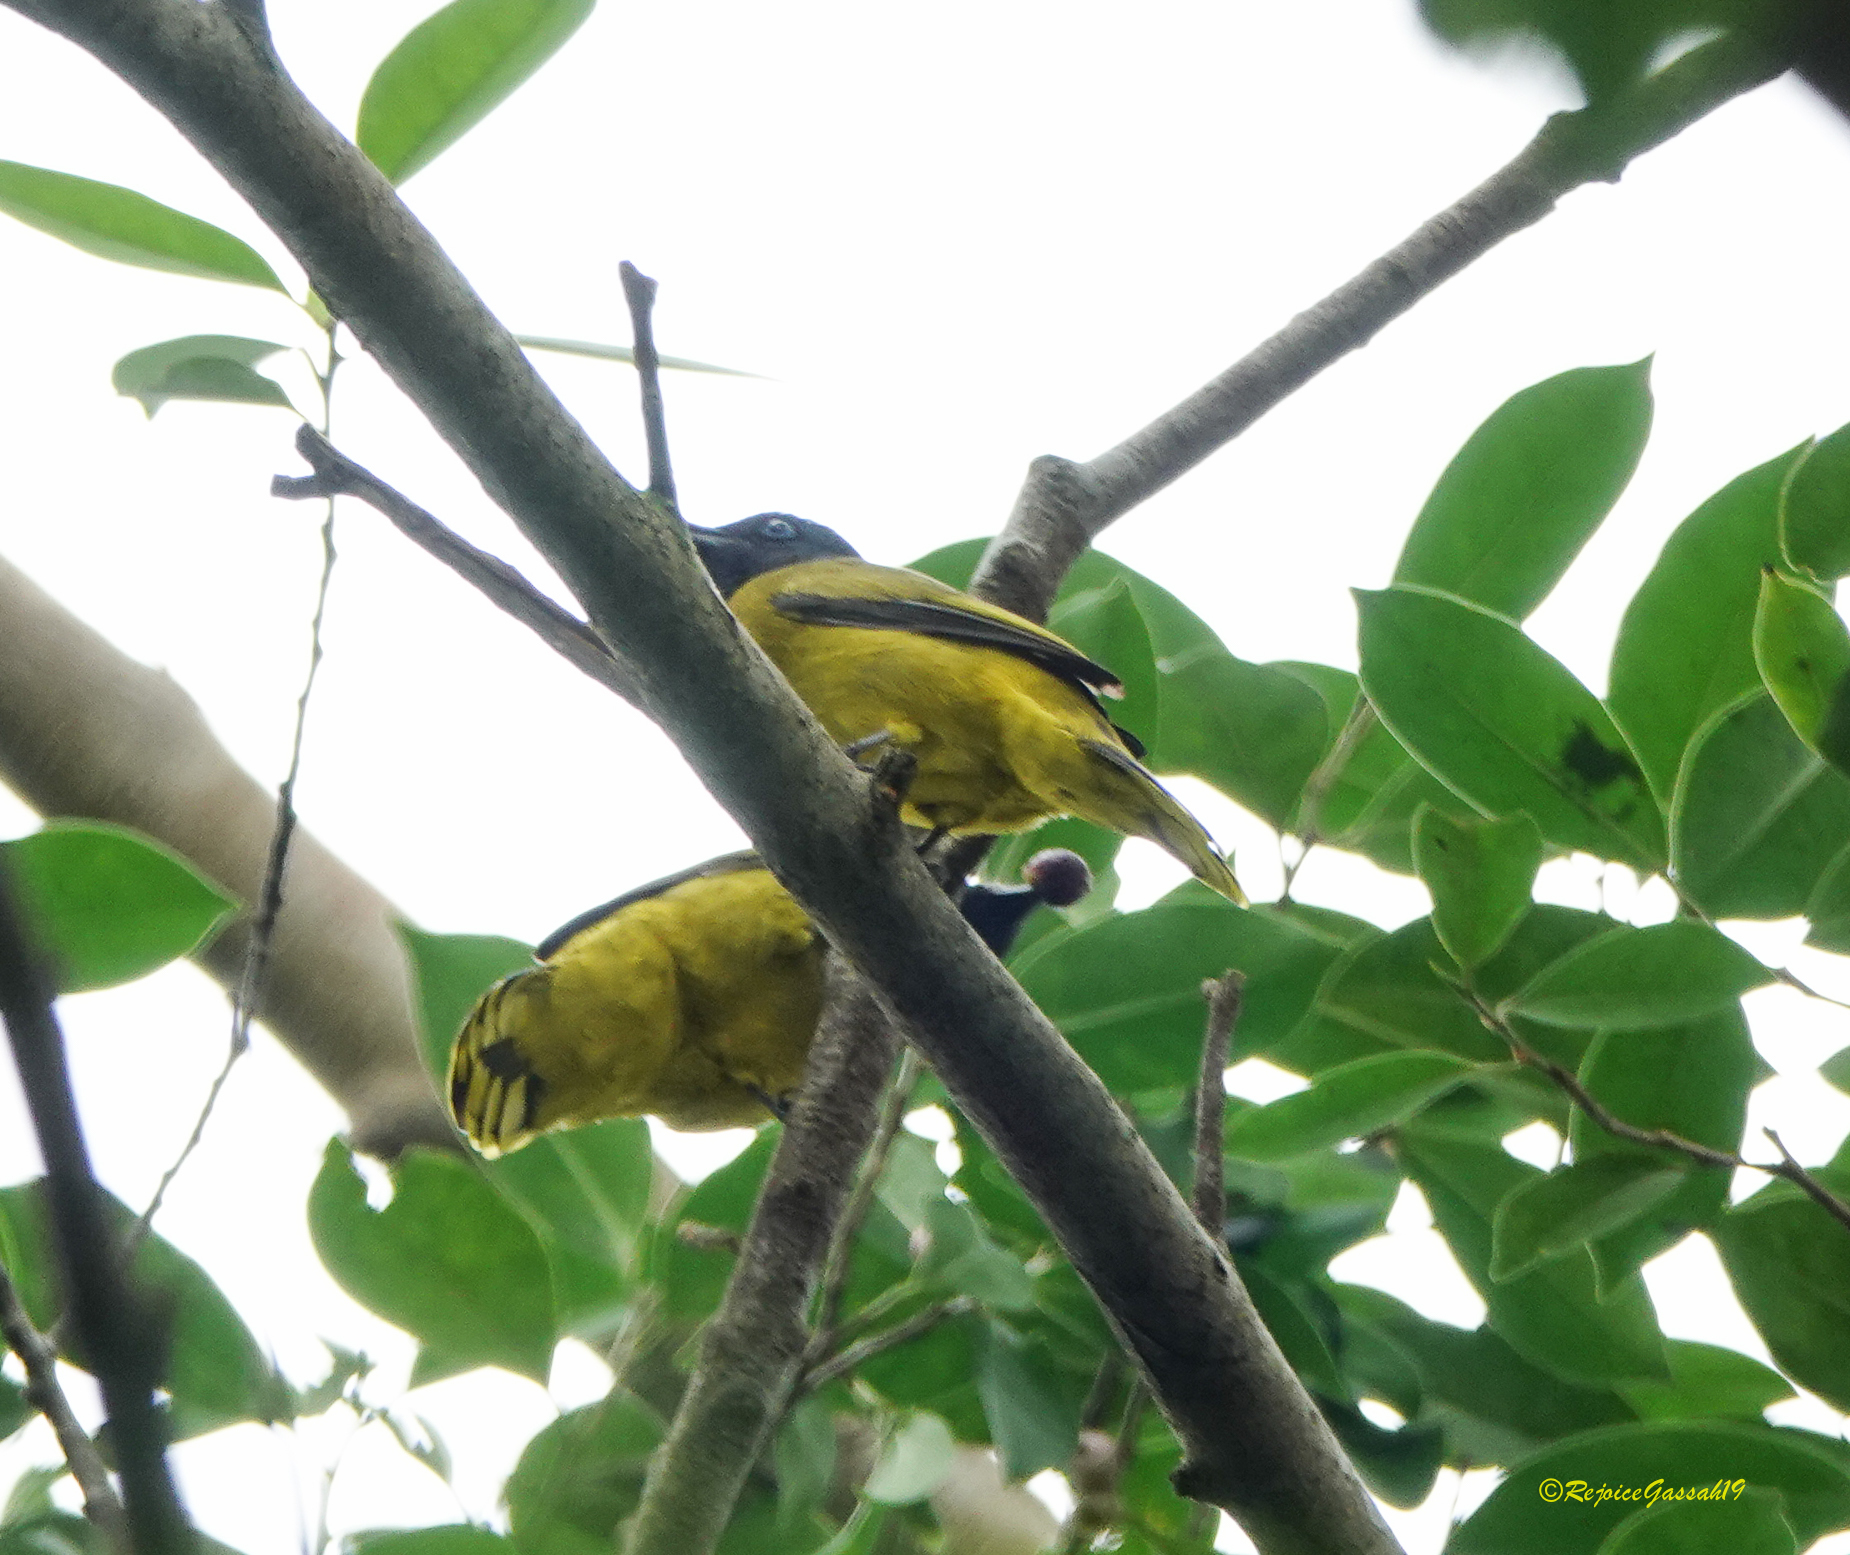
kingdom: Animalia
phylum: Chordata
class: Aves
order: Passeriformes
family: Pycnonotidae
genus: Microtarsus
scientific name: Microtarsus
